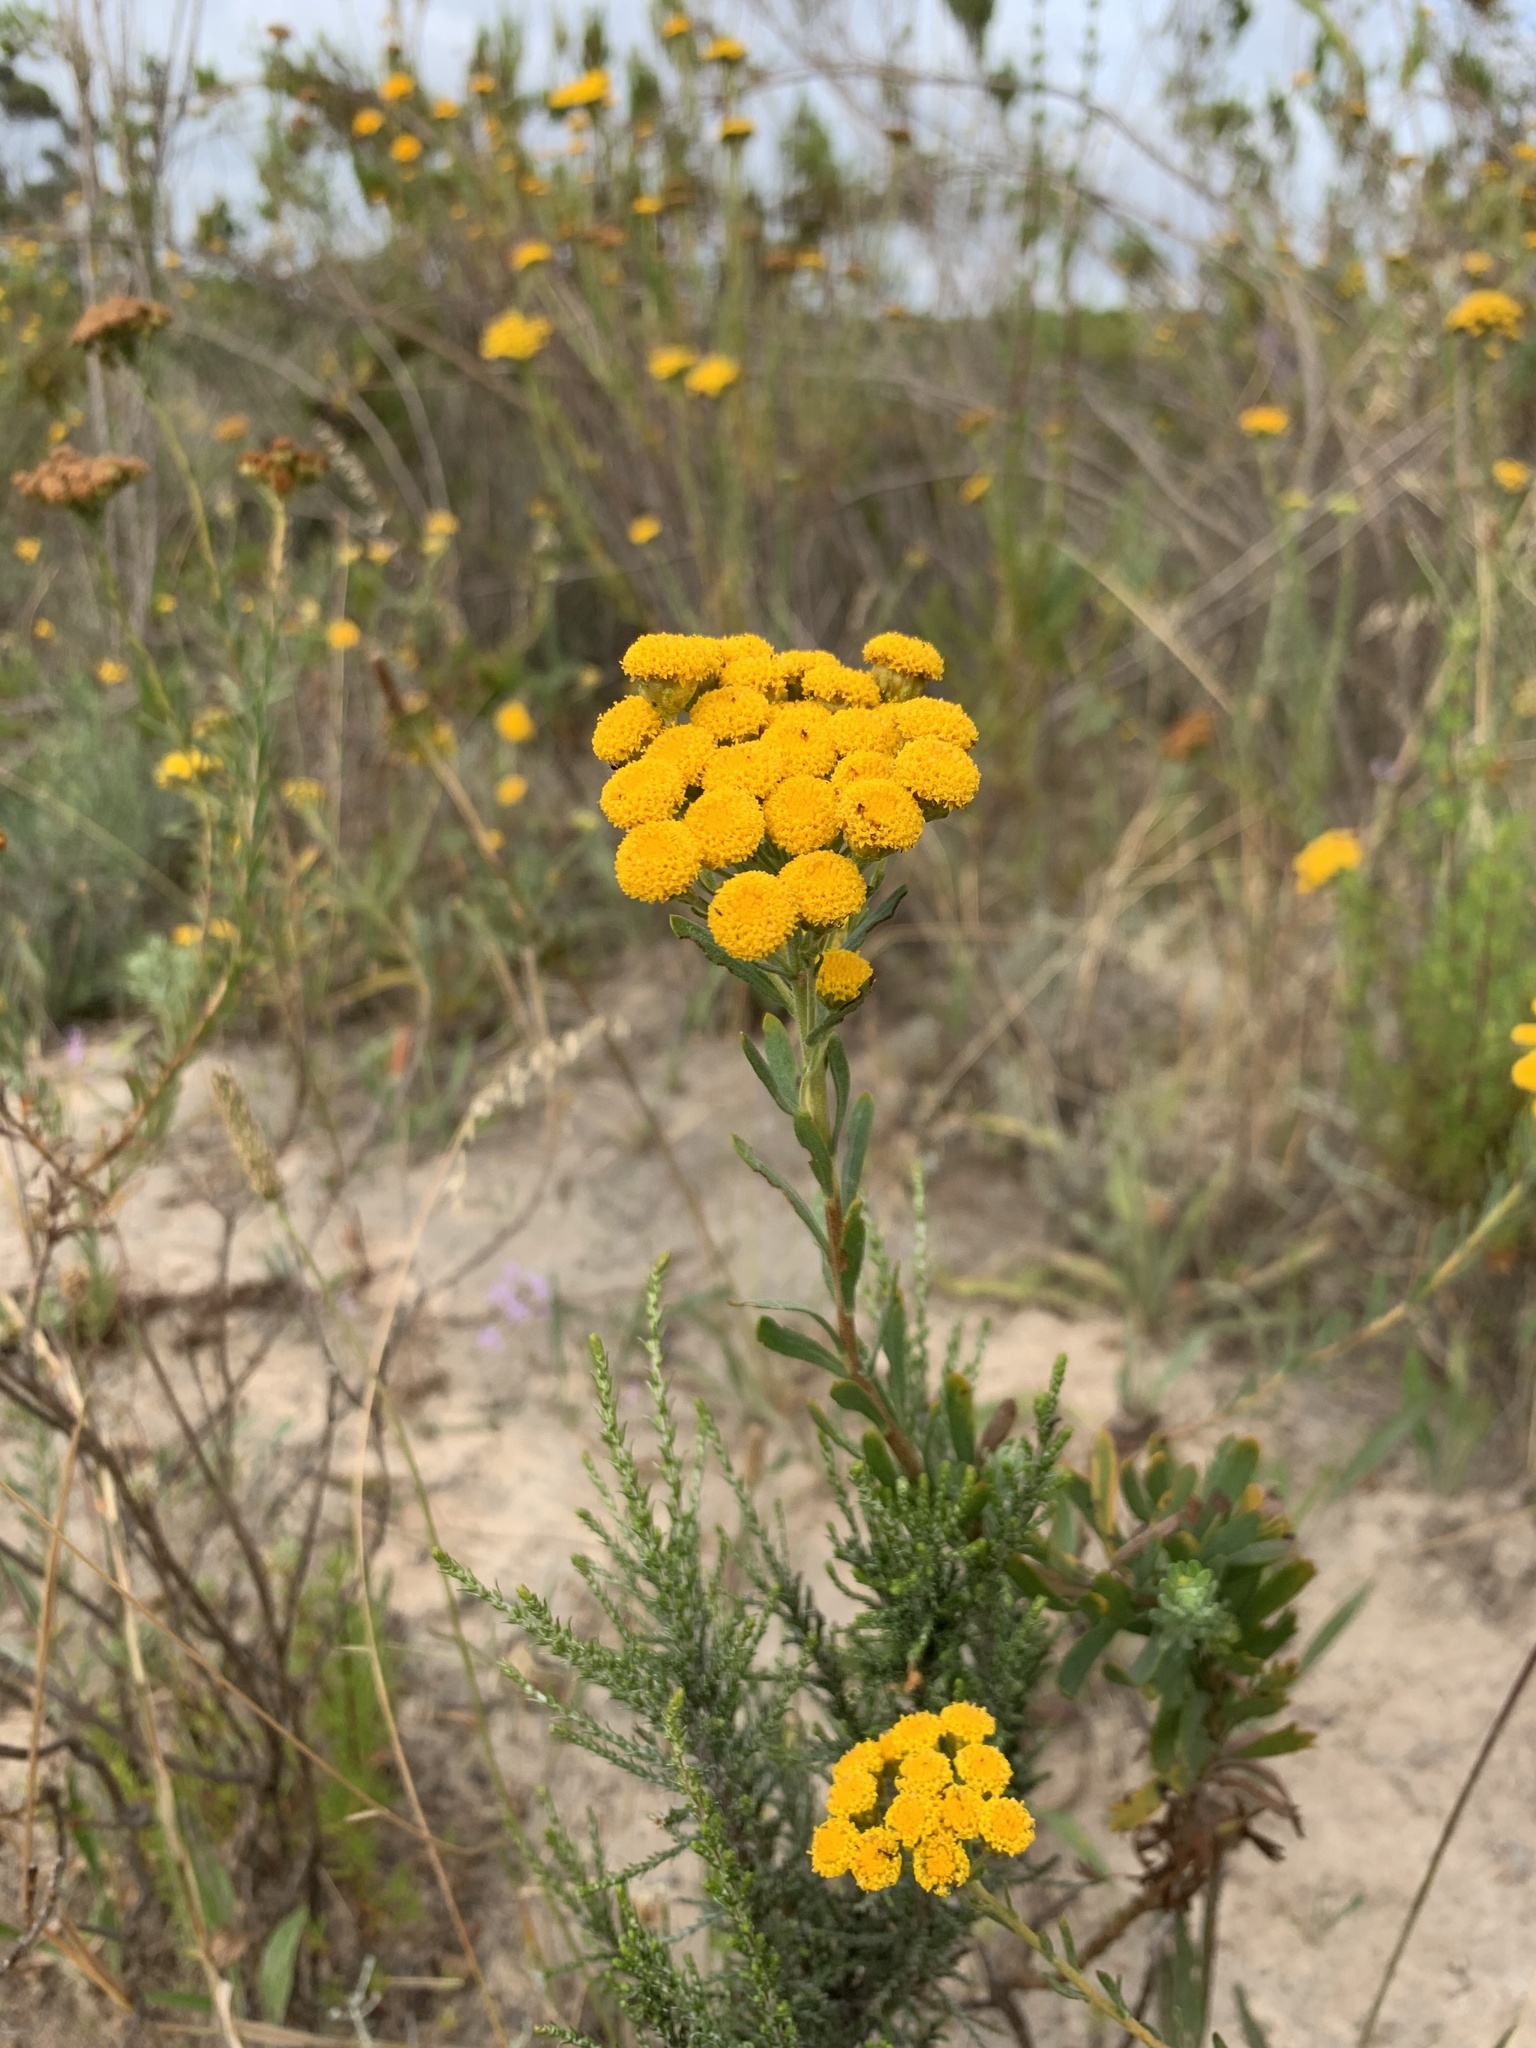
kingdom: Plantae
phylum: Tracheophyta
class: Magnoliopsida
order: Asterales
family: Asteraceae
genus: Athanasia
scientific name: Athanasia trifurcata
